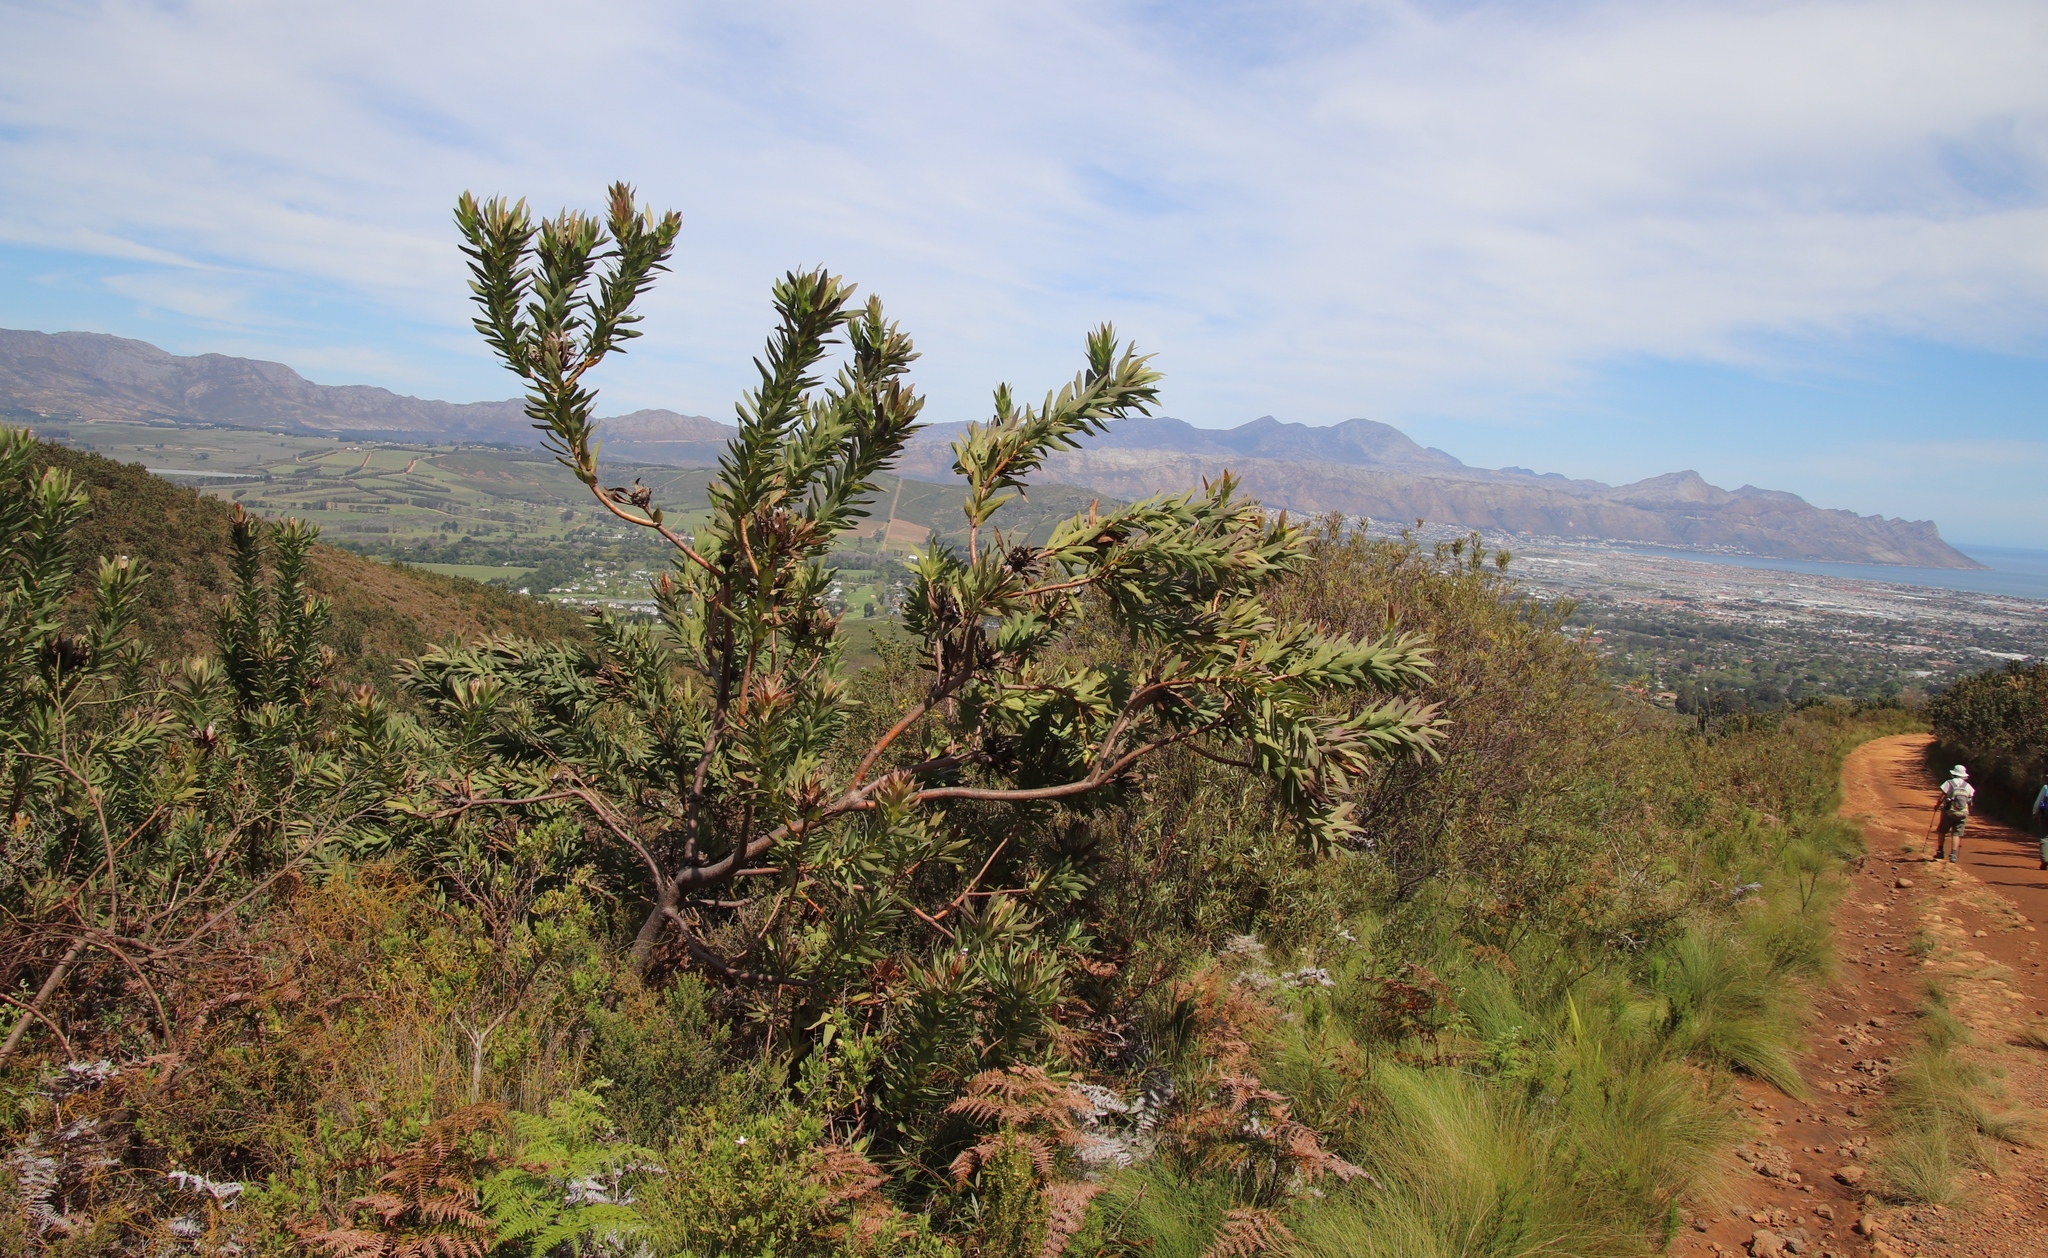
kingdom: Plantae
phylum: Tracheophyta
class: Magnoliopsida
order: Proteales
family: Proteaceae
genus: Protea
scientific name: Protea coronata
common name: Green sugarbush
